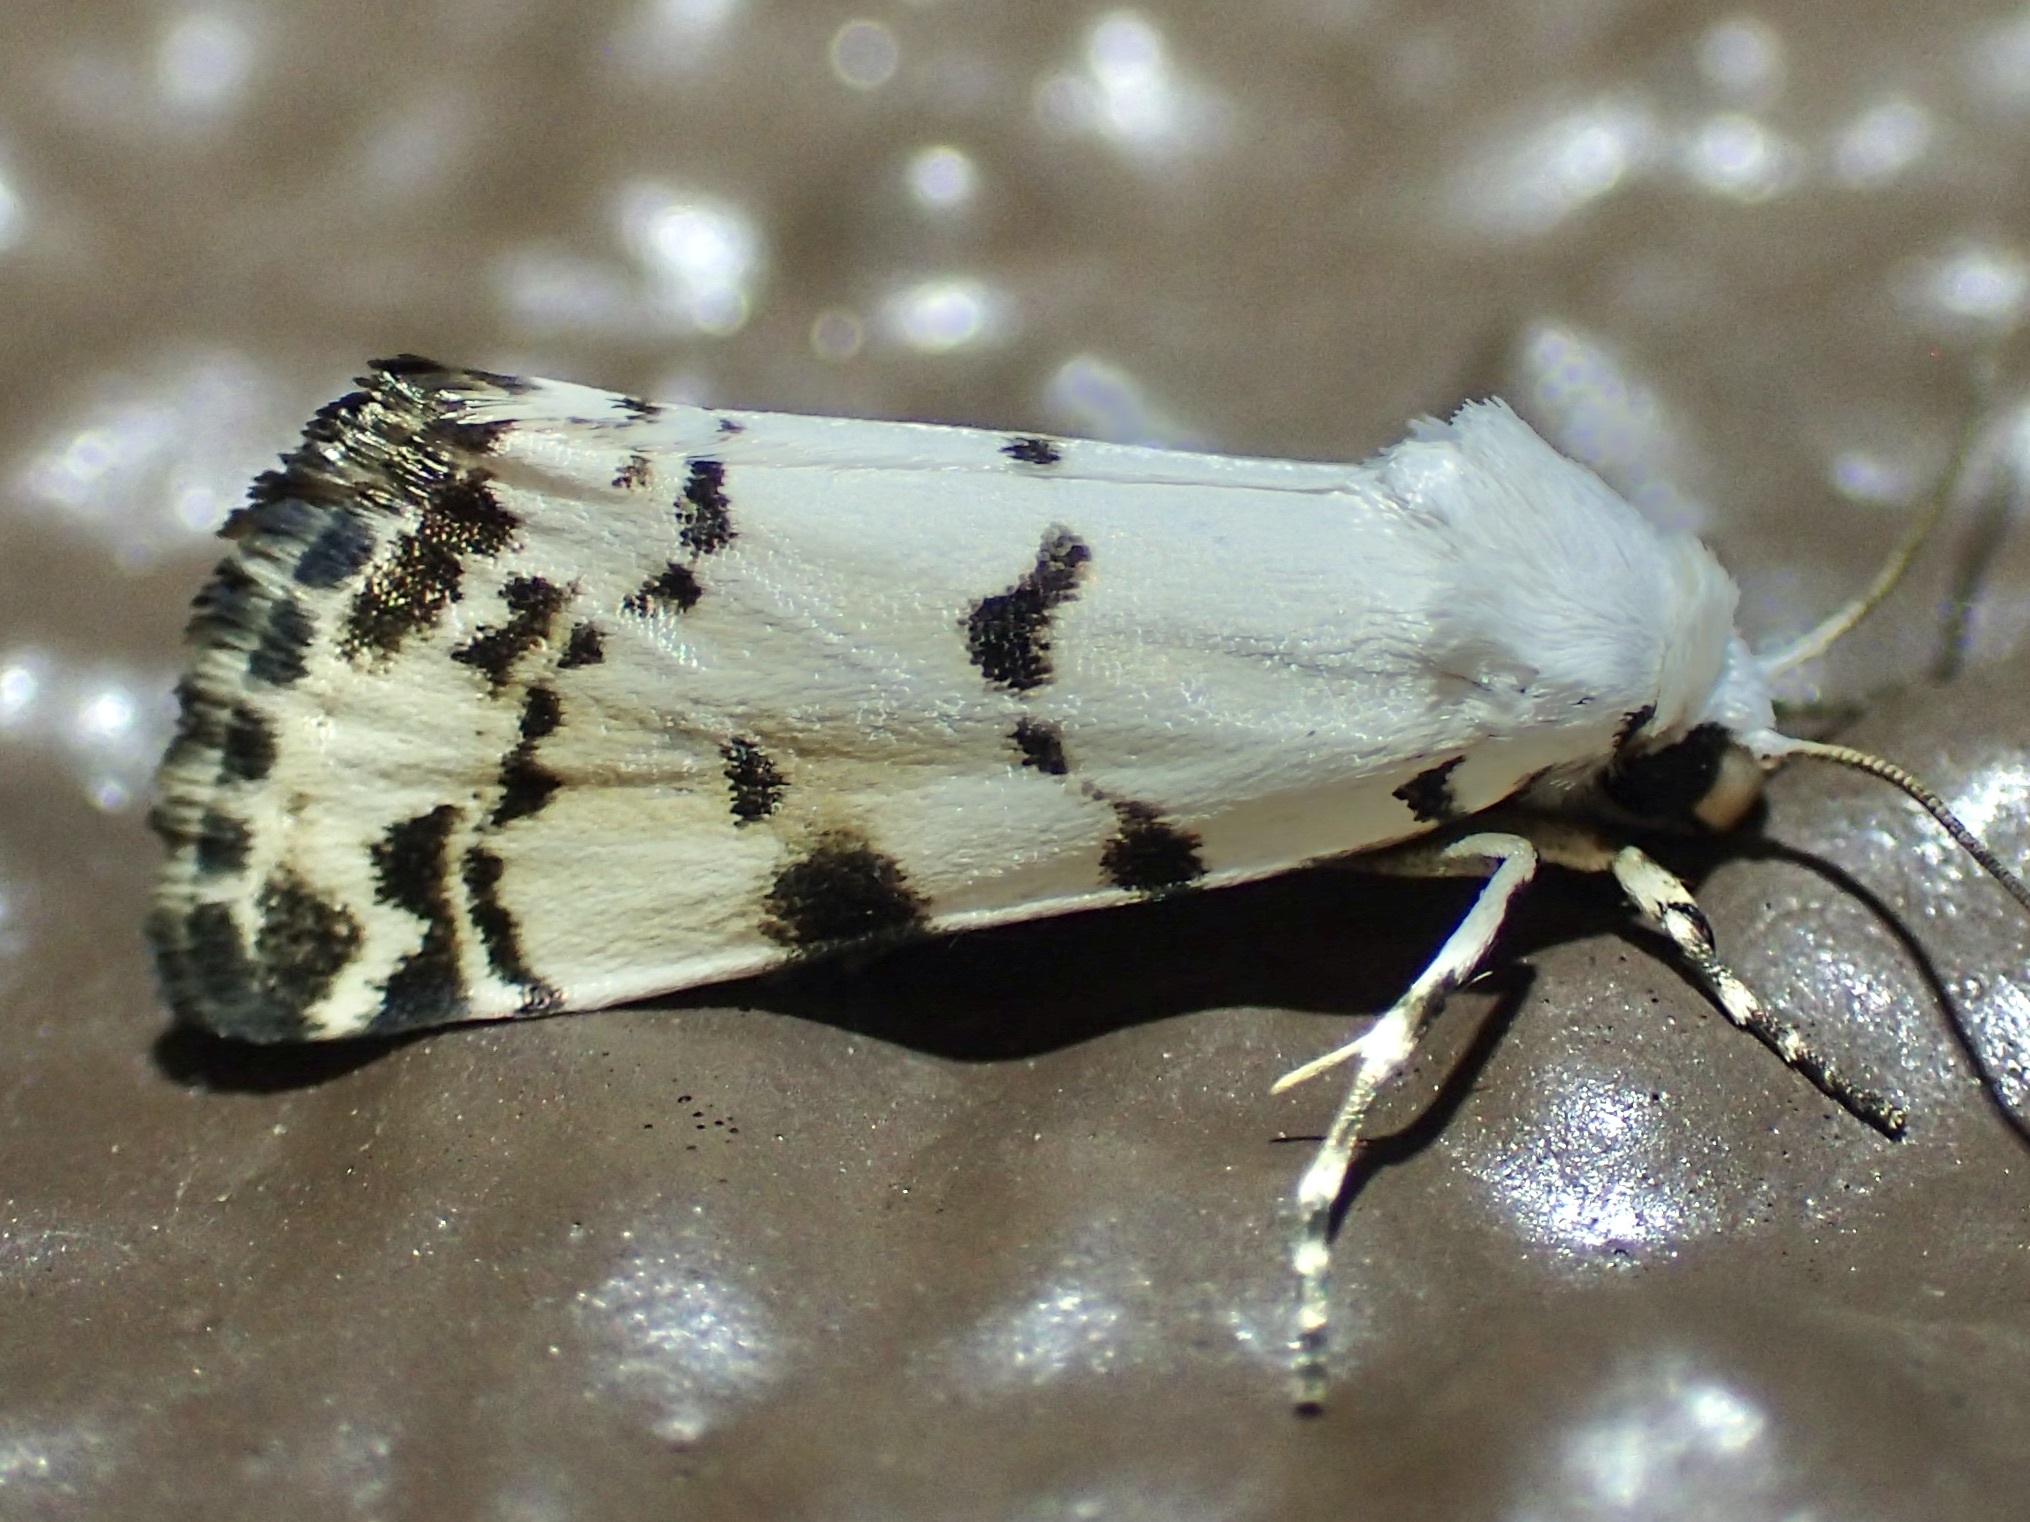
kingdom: Animalia
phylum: Arthropoda
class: Insecta
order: Lepidoptera
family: Noctuidae
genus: Grotella
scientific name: Grotella soror
